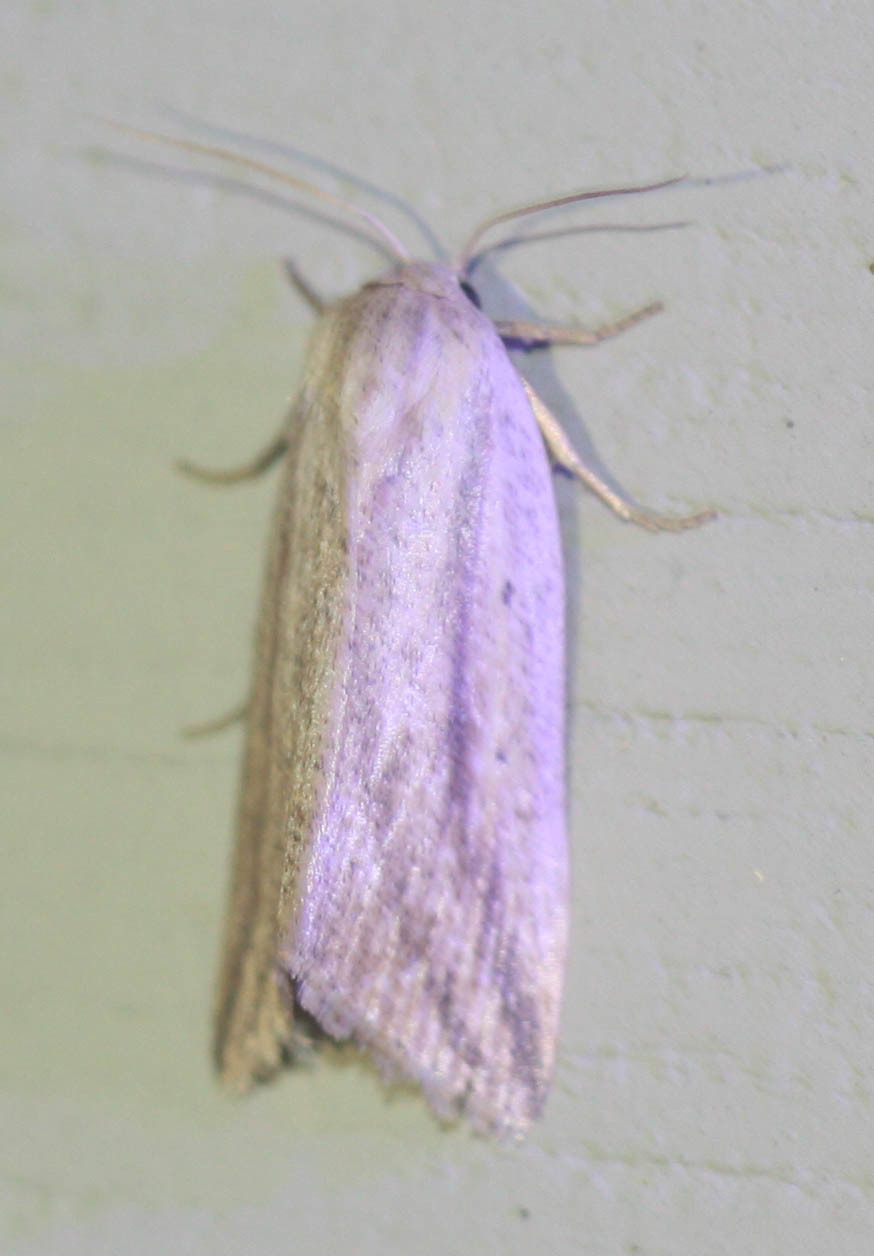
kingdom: Animalia
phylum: Arthropoda
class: Insecta
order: Lepidoptera
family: Noctuidae
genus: Amolita
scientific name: Amolita fessa
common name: Feeble grass moth
